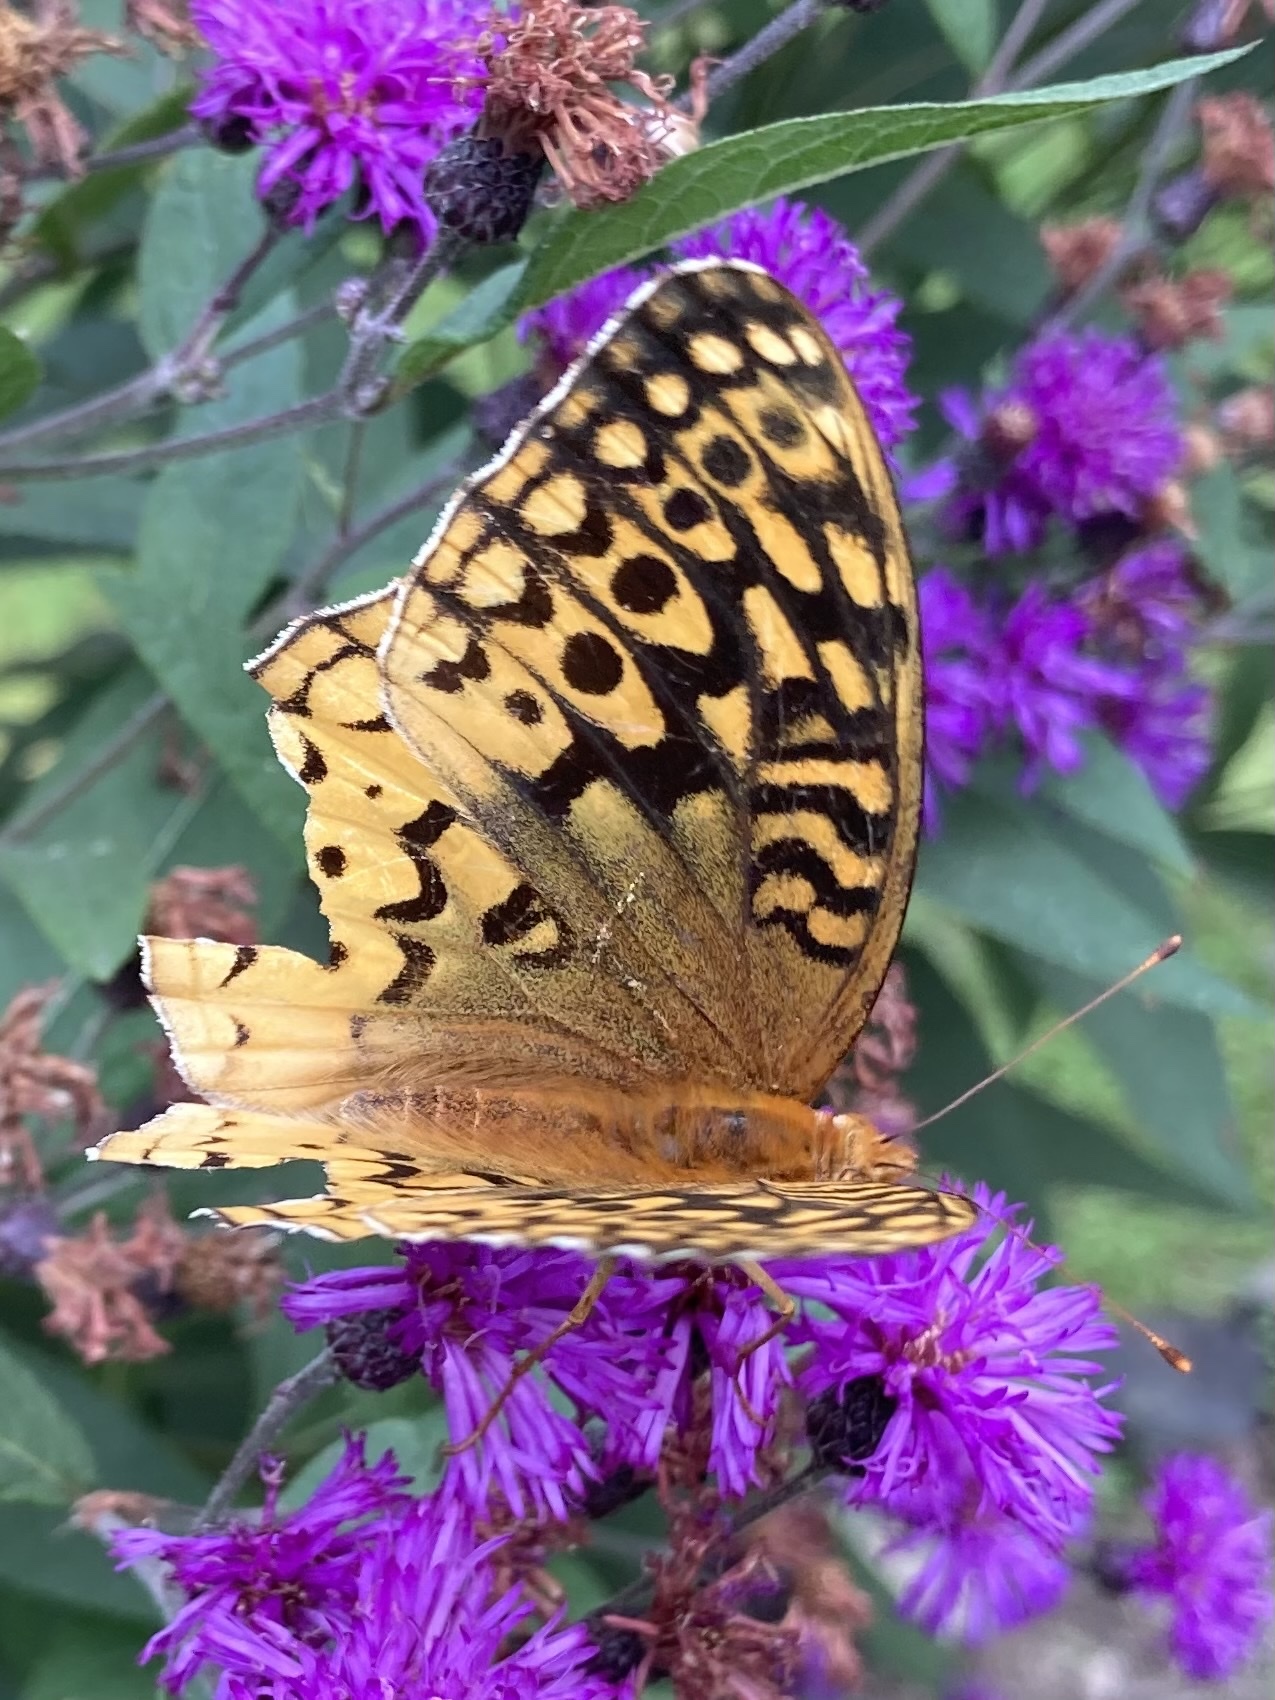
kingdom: Animalia
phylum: Arthropoda
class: Insecta
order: Lepidoptera
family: Nymphalidae
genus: Speyeria
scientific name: Speyeria cybele
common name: Great spangled fritillary
